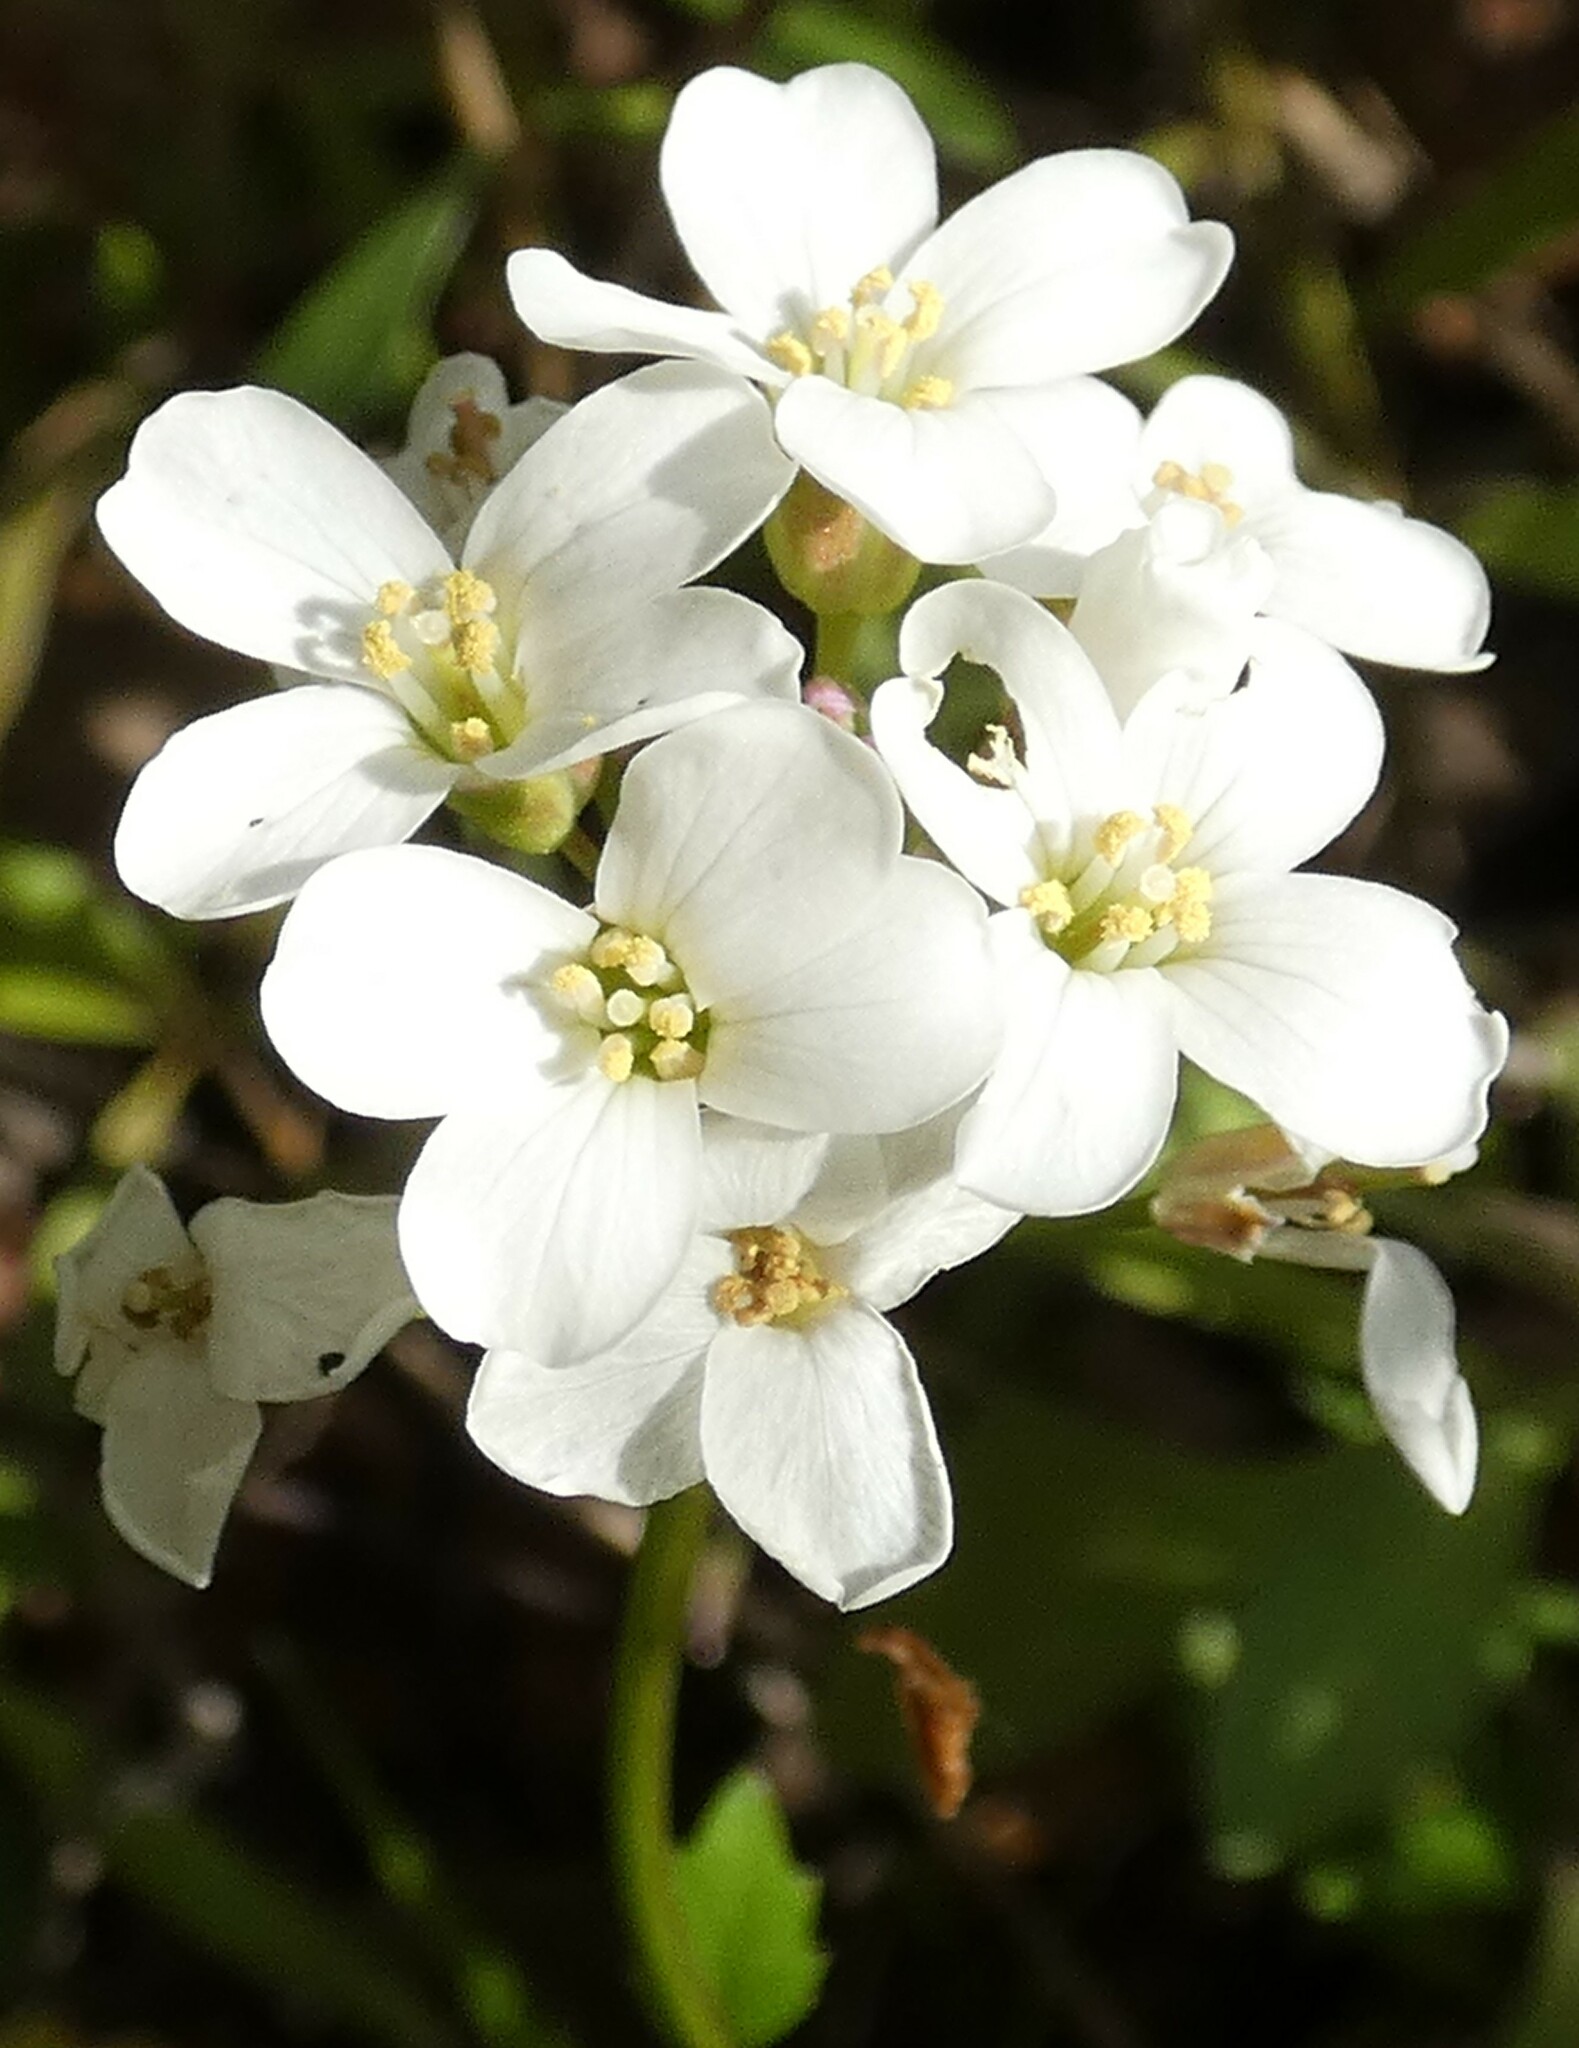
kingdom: Plantae
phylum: Tracheophyta
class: Magnoliopsida
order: Brassicales
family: Brassicaceae
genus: Cardamine
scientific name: Cardamine bulbosa
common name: Spring cress
